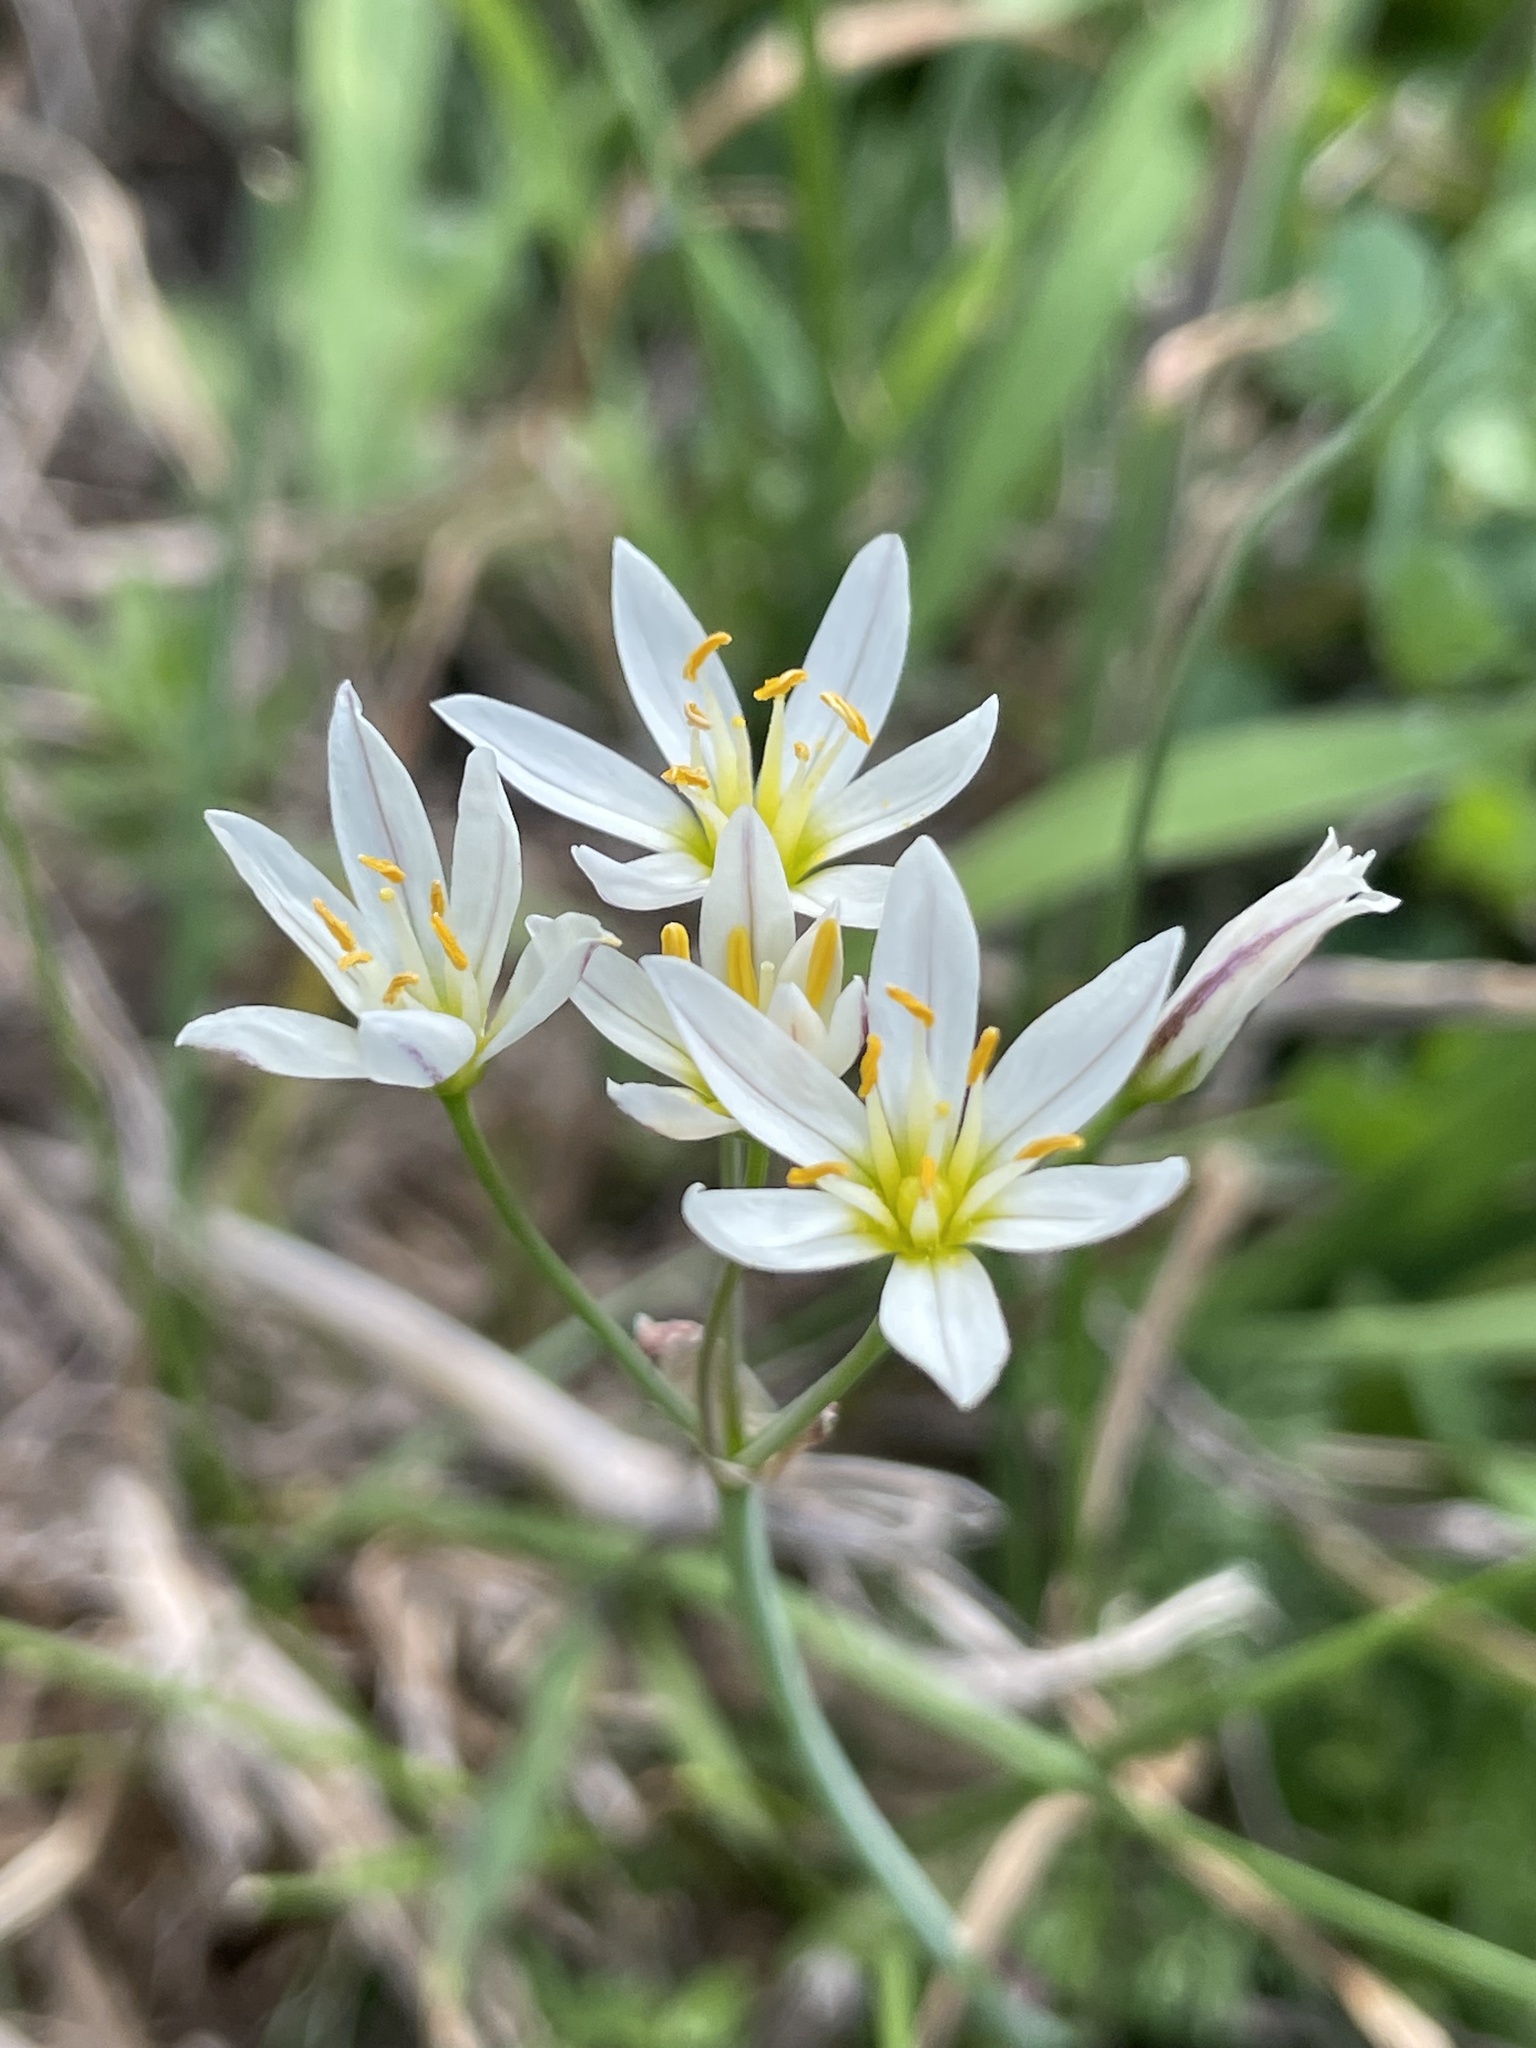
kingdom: Plantae
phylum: Tracheophyta
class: Liliopsida
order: Asparagales
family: Amaryllidaceae
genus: Nothoscordum
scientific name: Nothoscordum bivalve
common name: Crow-poison
